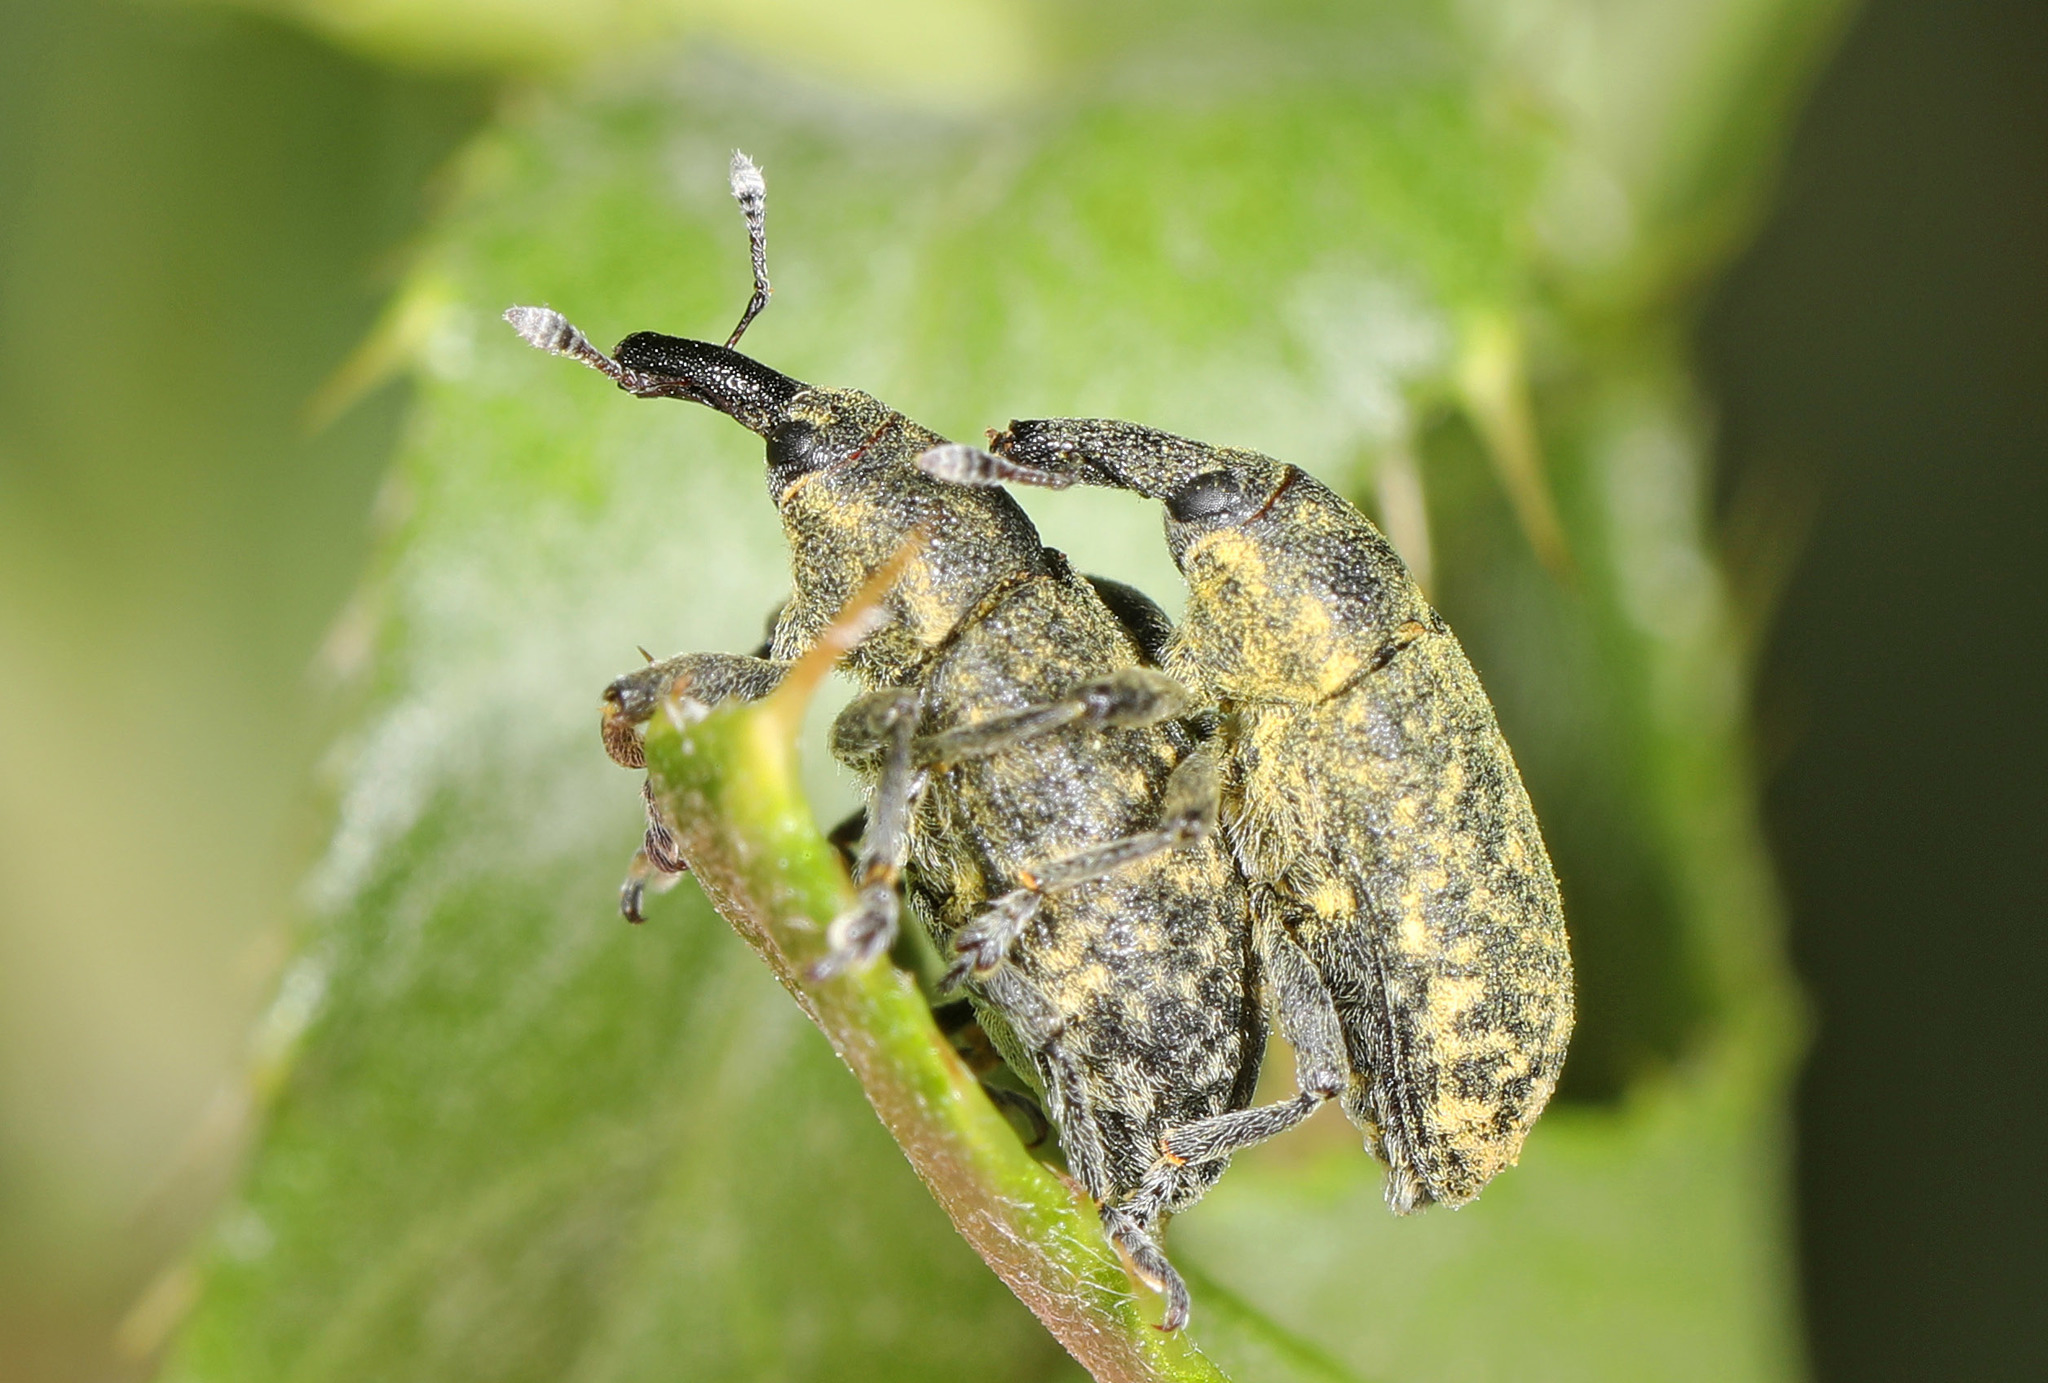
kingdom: Animalia
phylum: Arthropoda
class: Insecta
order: Coleoptera
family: Curculionidae
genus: Larinus
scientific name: Larinus carlinae
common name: Weevil
